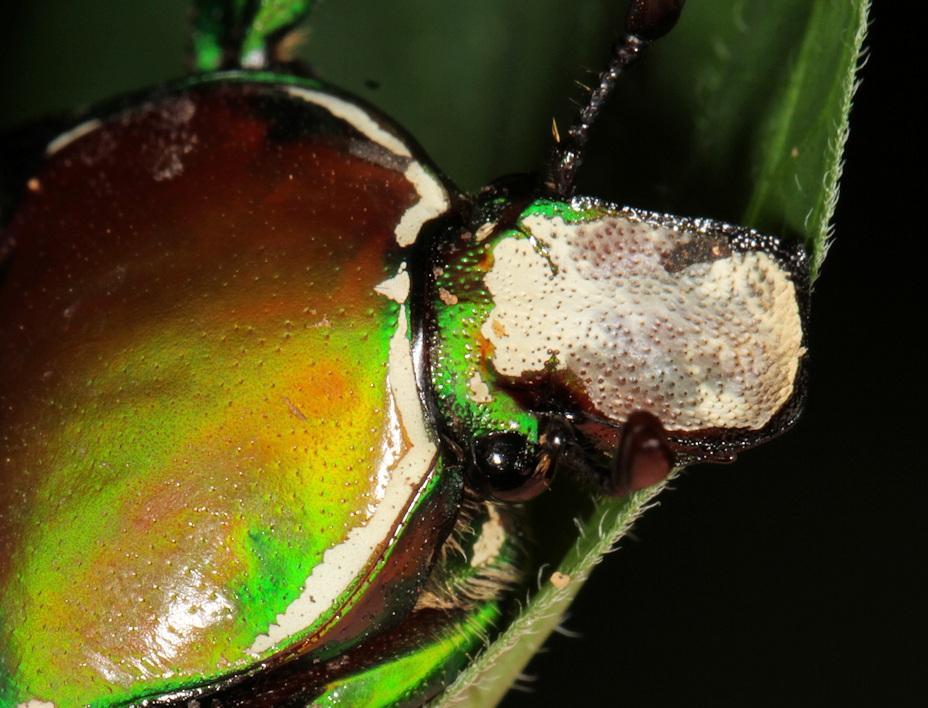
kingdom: Animalia
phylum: Arthropoda
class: Insecta
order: Coleoptera
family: Scarabaeidae
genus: Rhamphorrhina
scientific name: Rhamphorrhina splendens
